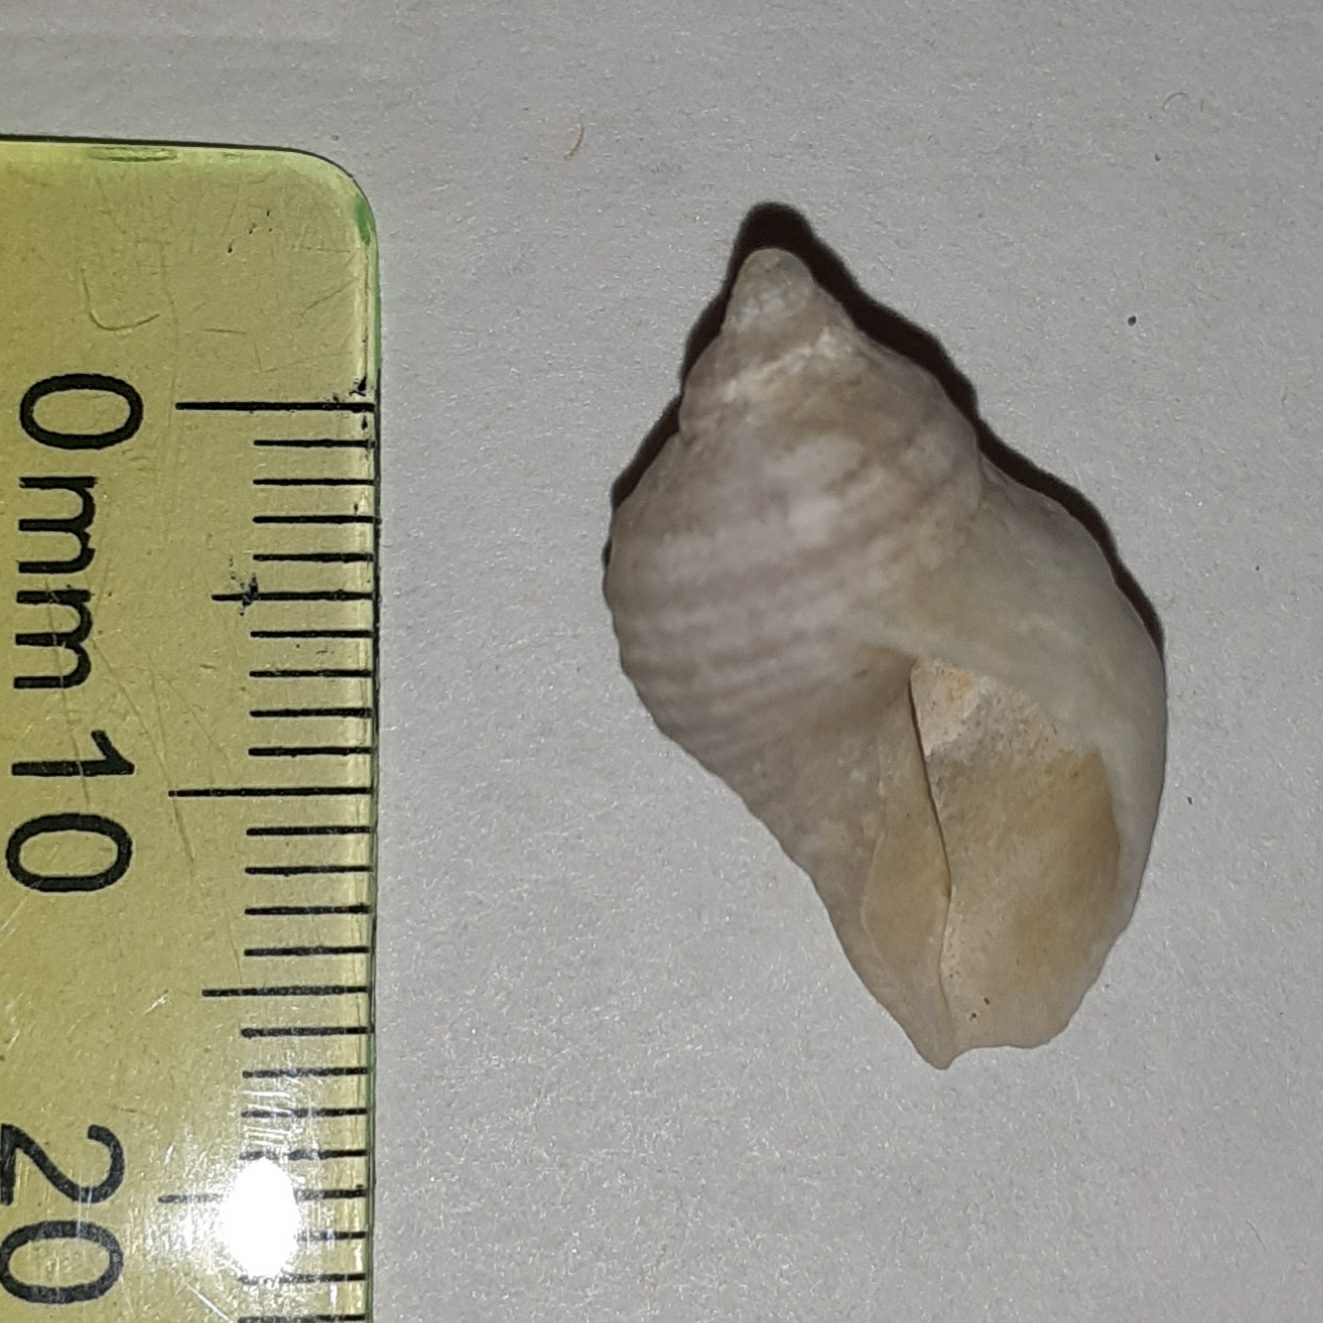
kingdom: Animalia
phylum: Mollusca
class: Gastropoda
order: Neogastropoda
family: Muricidae
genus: Nucella
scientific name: Nucella lapillus
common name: Dog whelk
